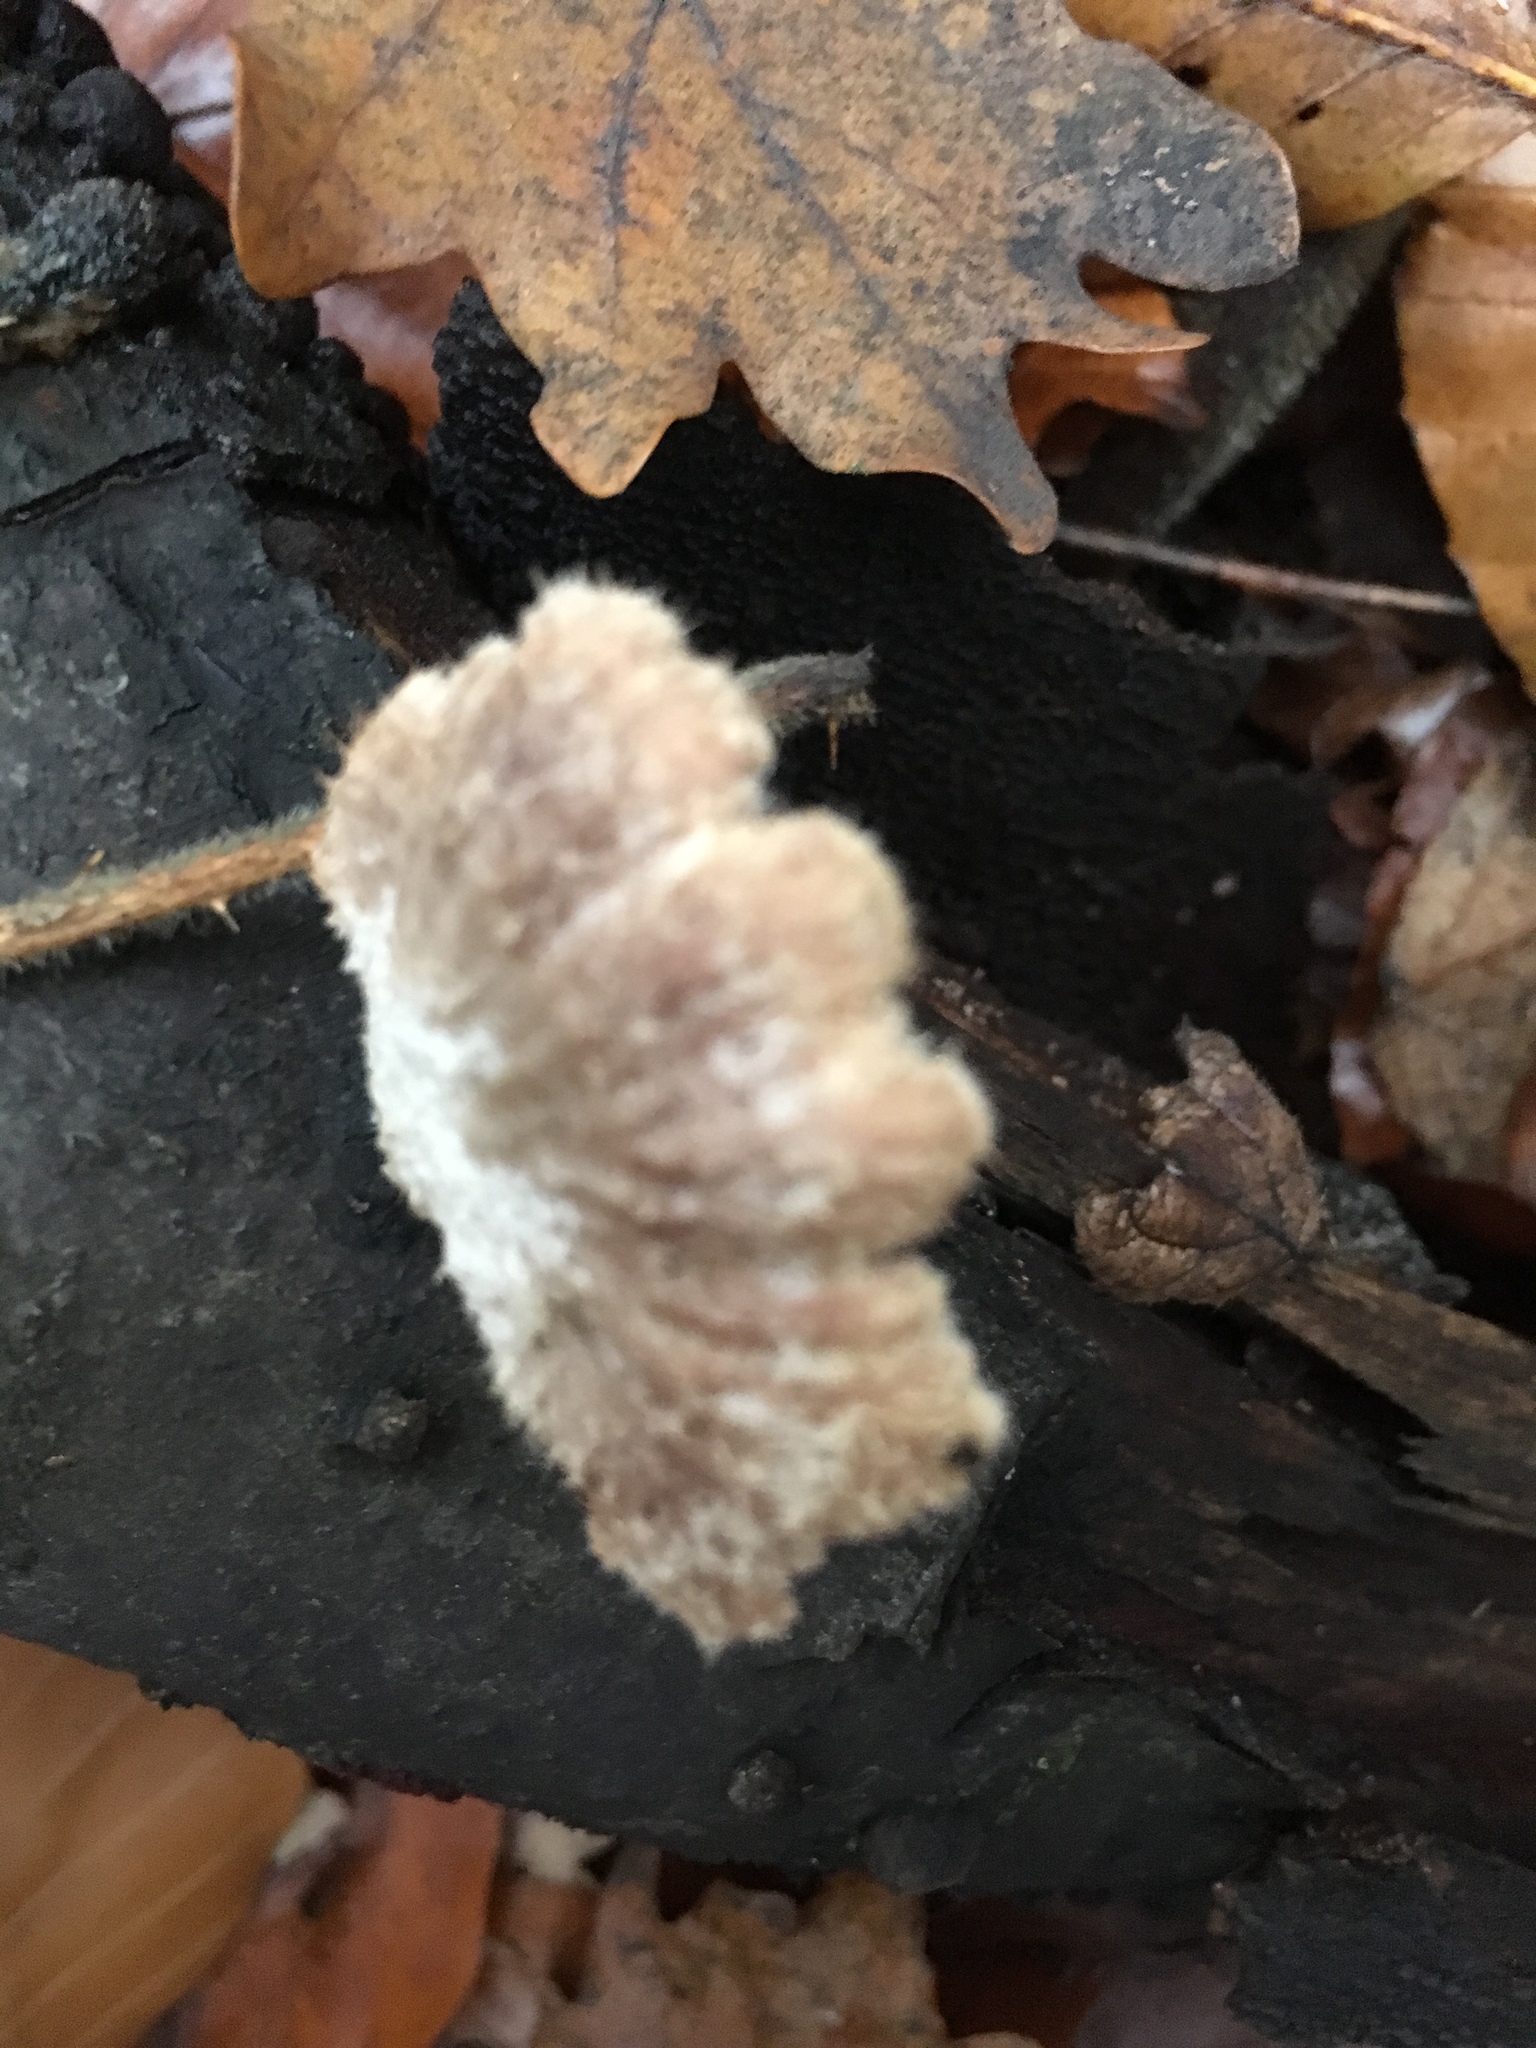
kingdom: Fungi
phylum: Basidiomycota
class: Agaricomycetes
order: Agaricales
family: Schizophyllaceae
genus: Schizophyllum
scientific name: Schizophyllum commune
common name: Common porecrust
